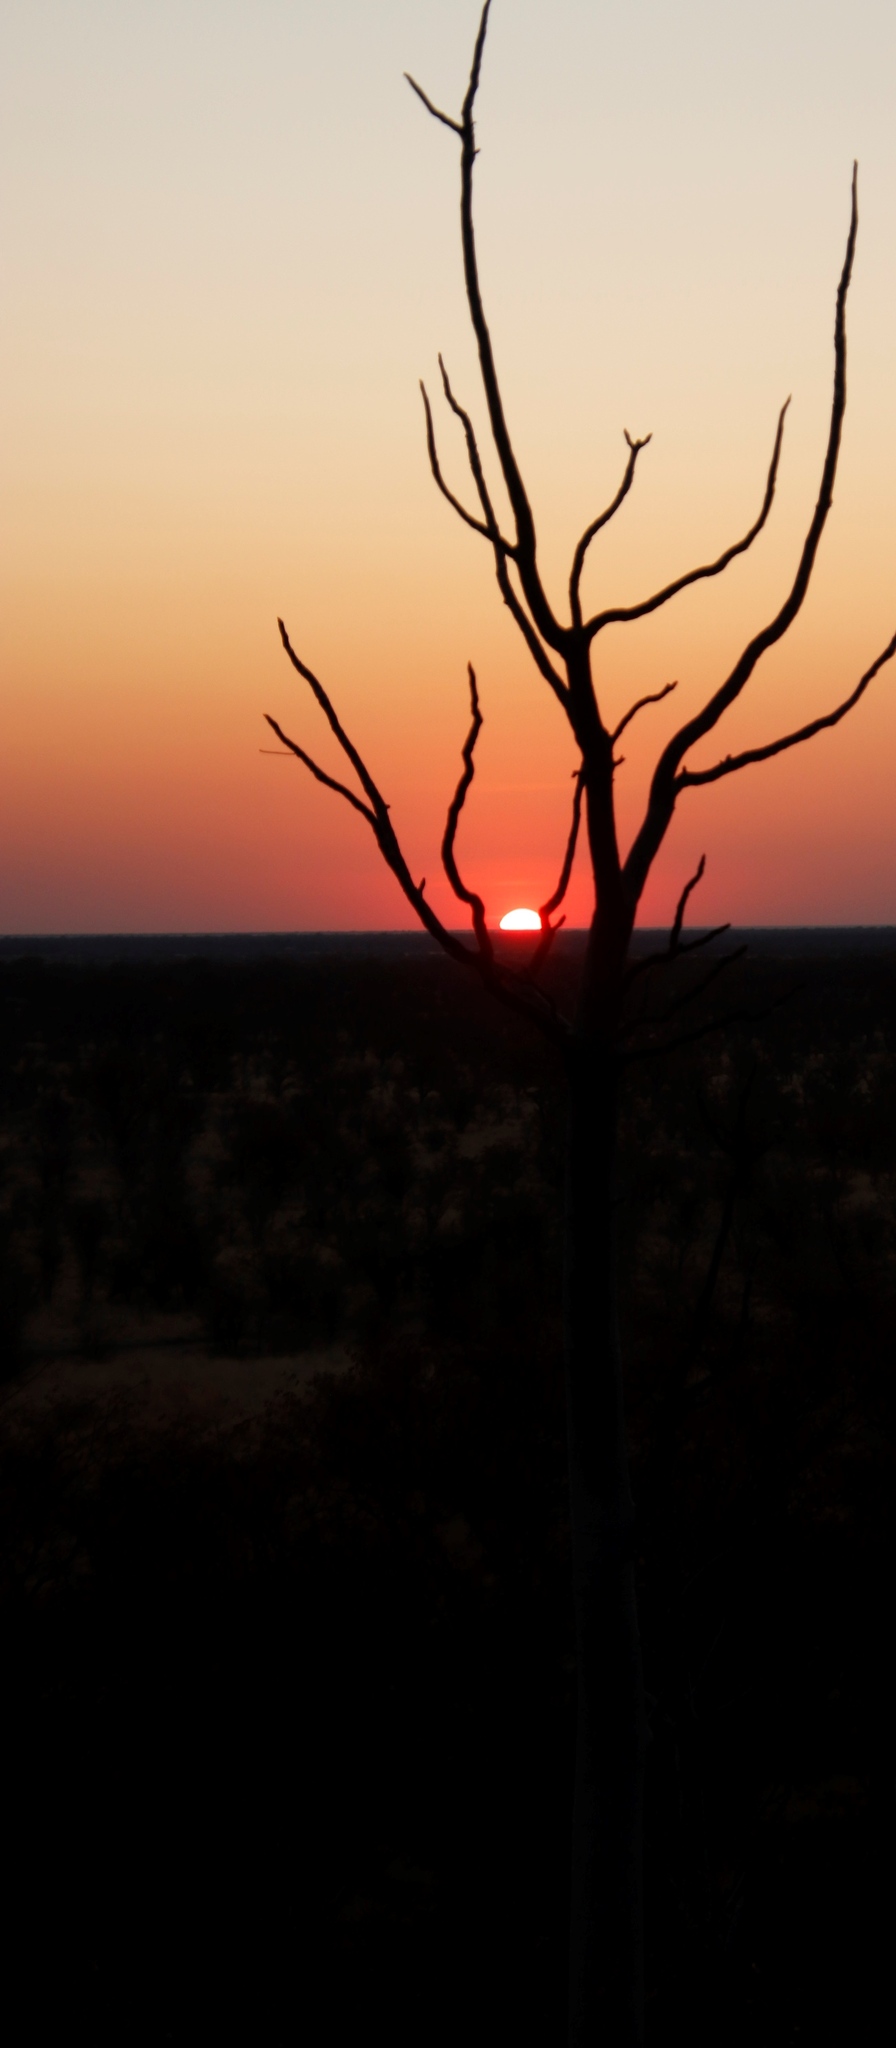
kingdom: Plantae
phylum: Tracheophyta
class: Magnoliopsida
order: Brassicales
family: Moringaceae
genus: Moringa
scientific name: Moringa ovalifolia
